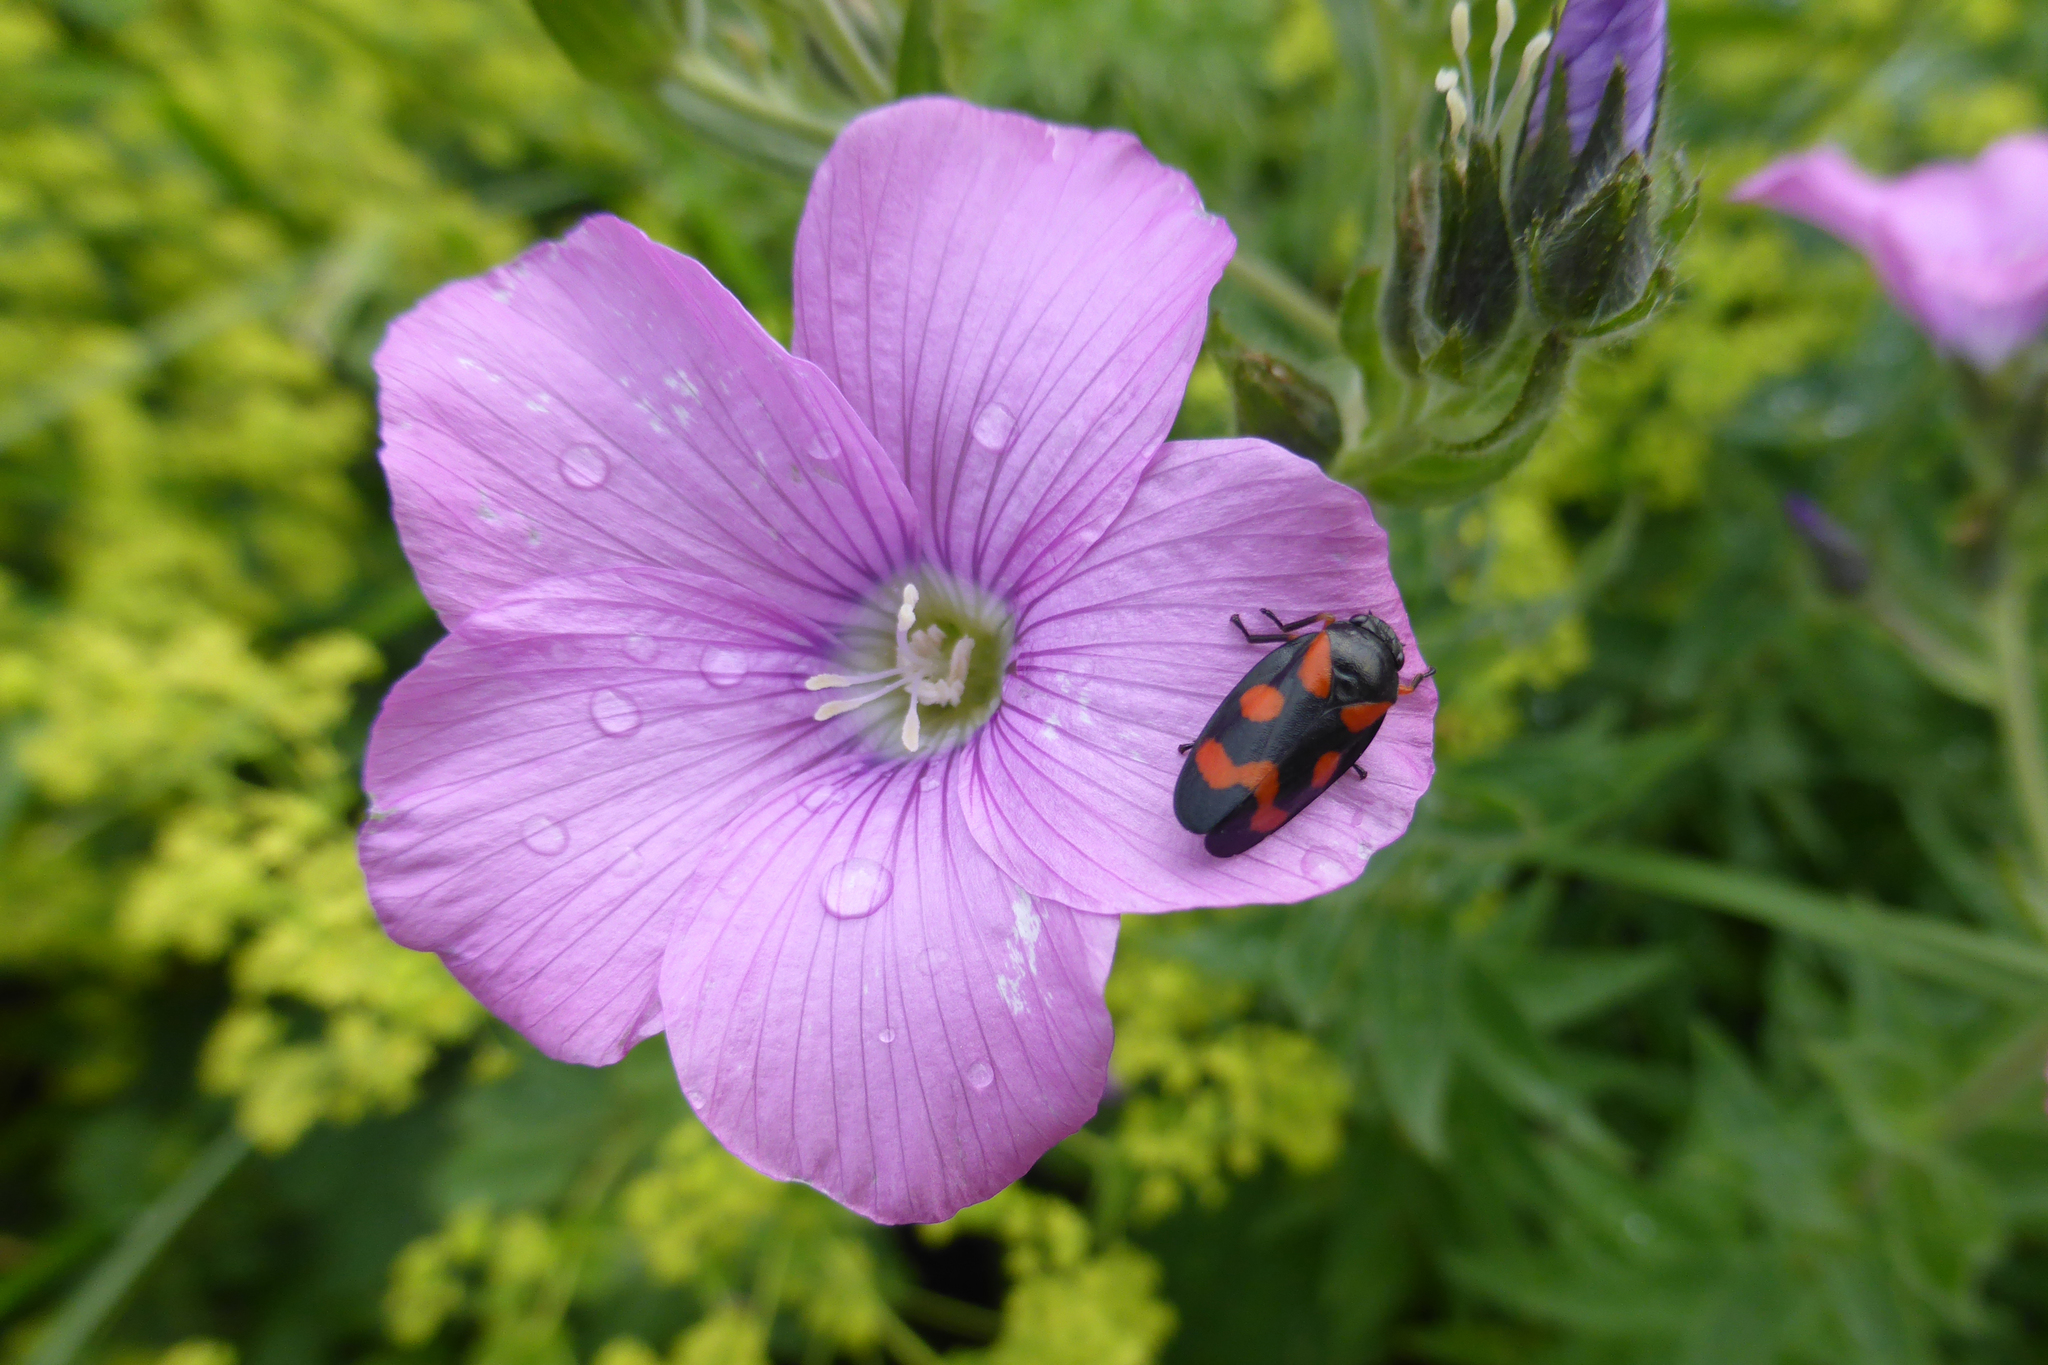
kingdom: Plantae
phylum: Tracheophyta
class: Magnoliopsida
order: Malpighiales
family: Linaceae
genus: Linum
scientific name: Linum hypericifolium
